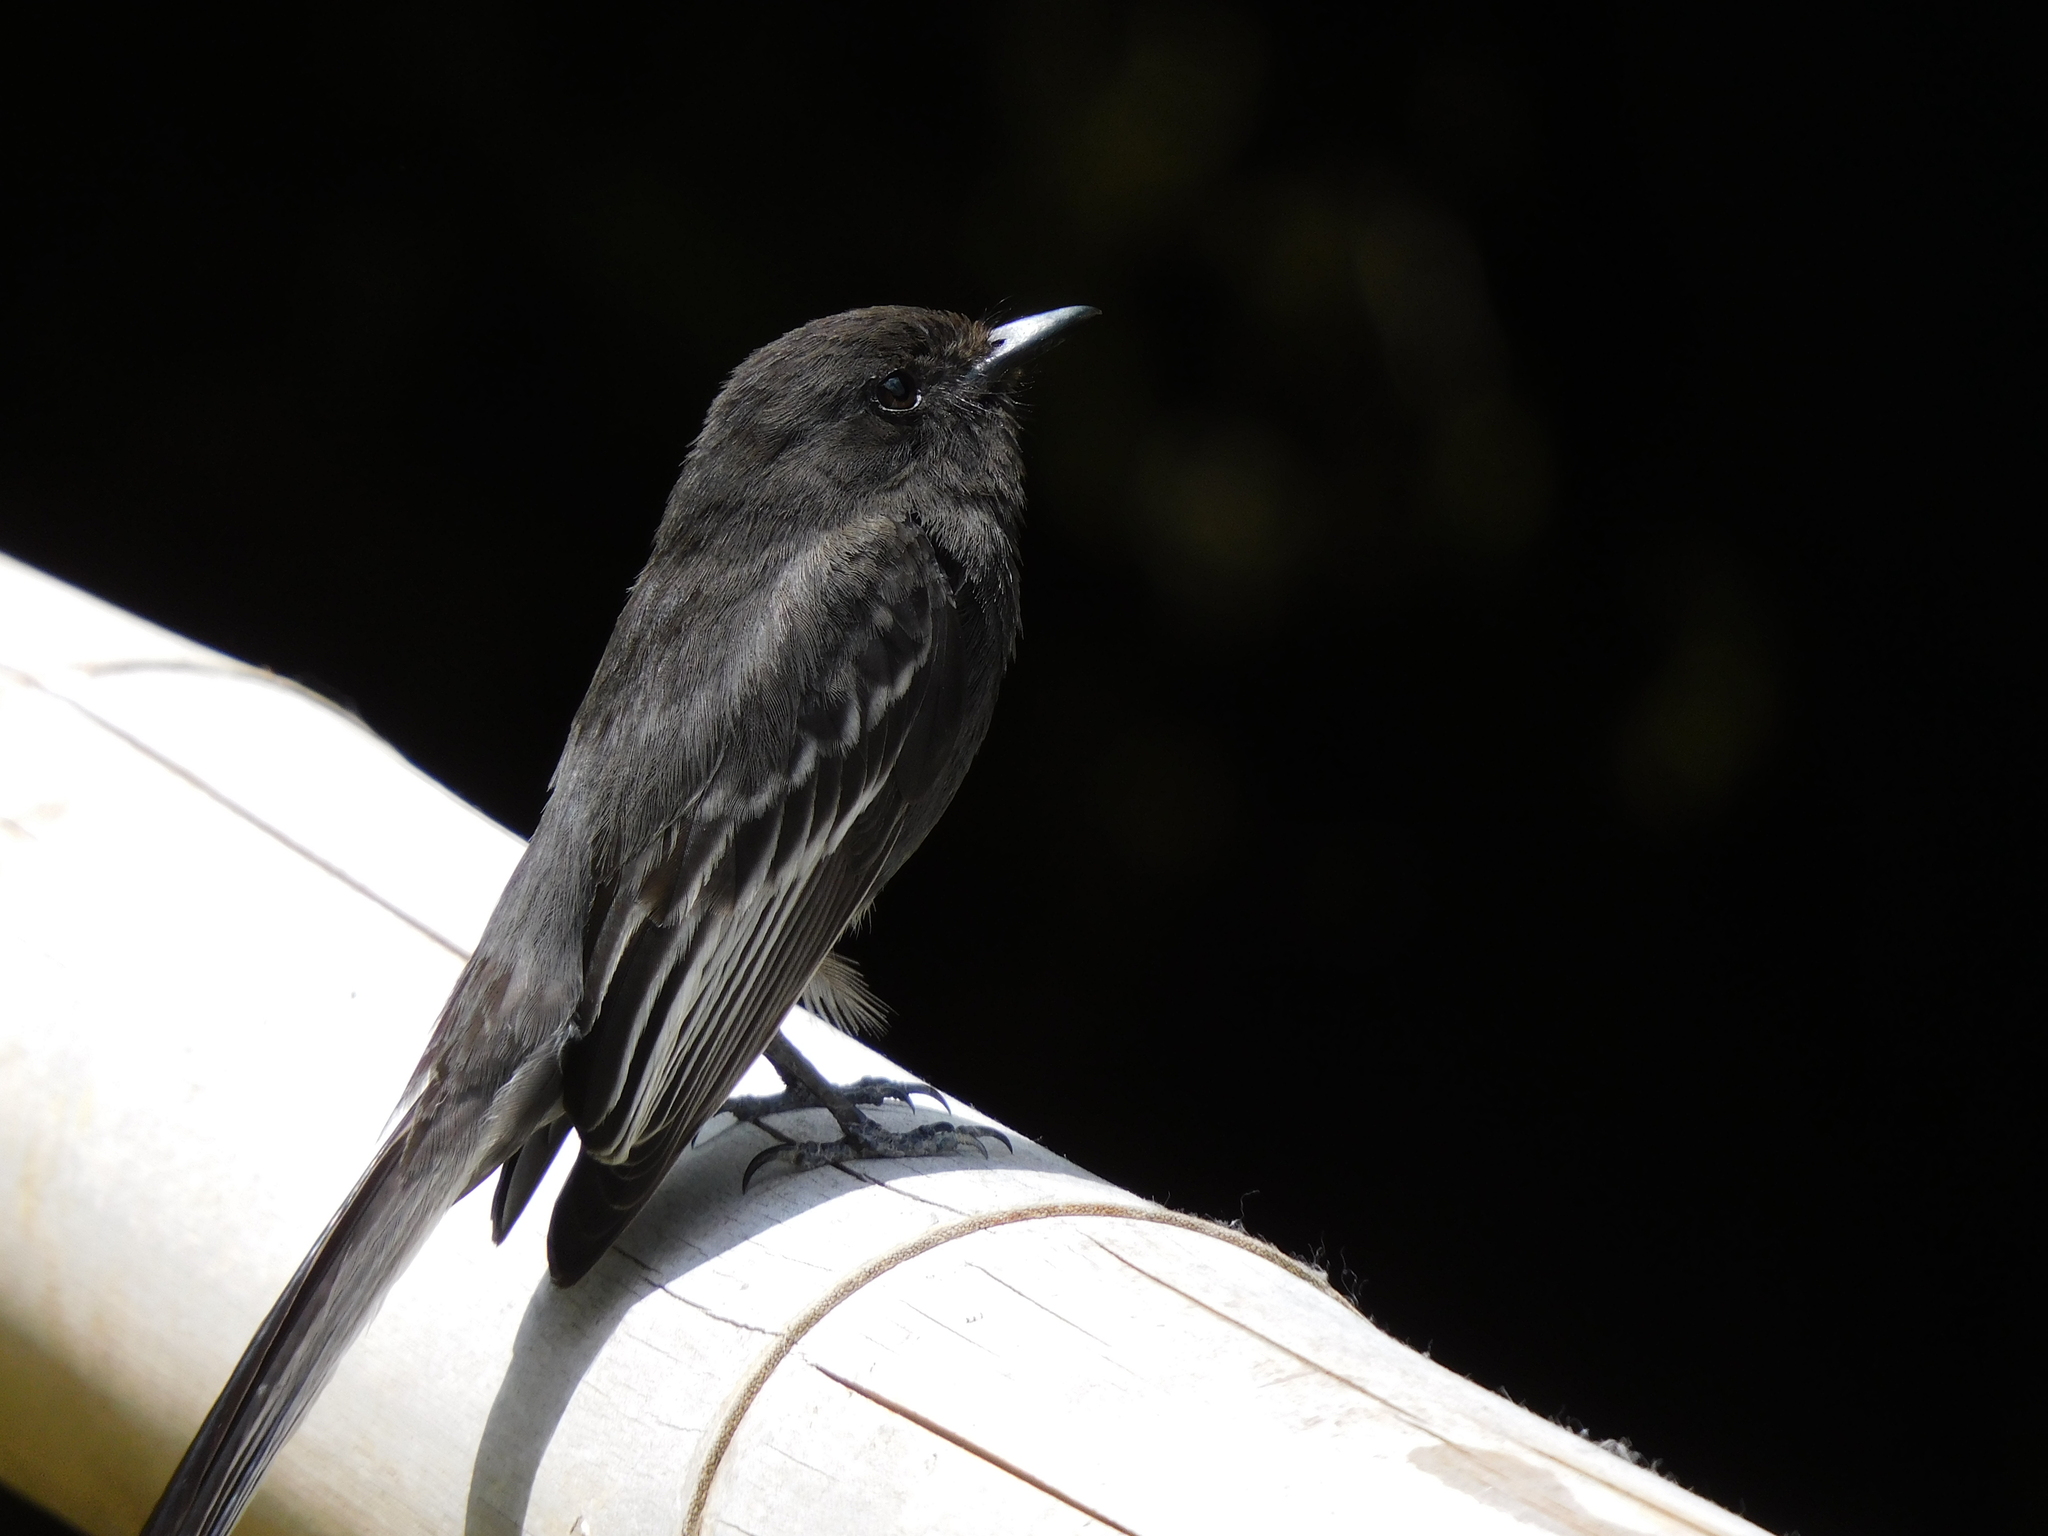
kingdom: Animalia
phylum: Chordata
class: Aves
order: Passeriformes
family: Tyrannidae
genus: Sayornis
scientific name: Sayornis nigricans
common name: Black phoebe
